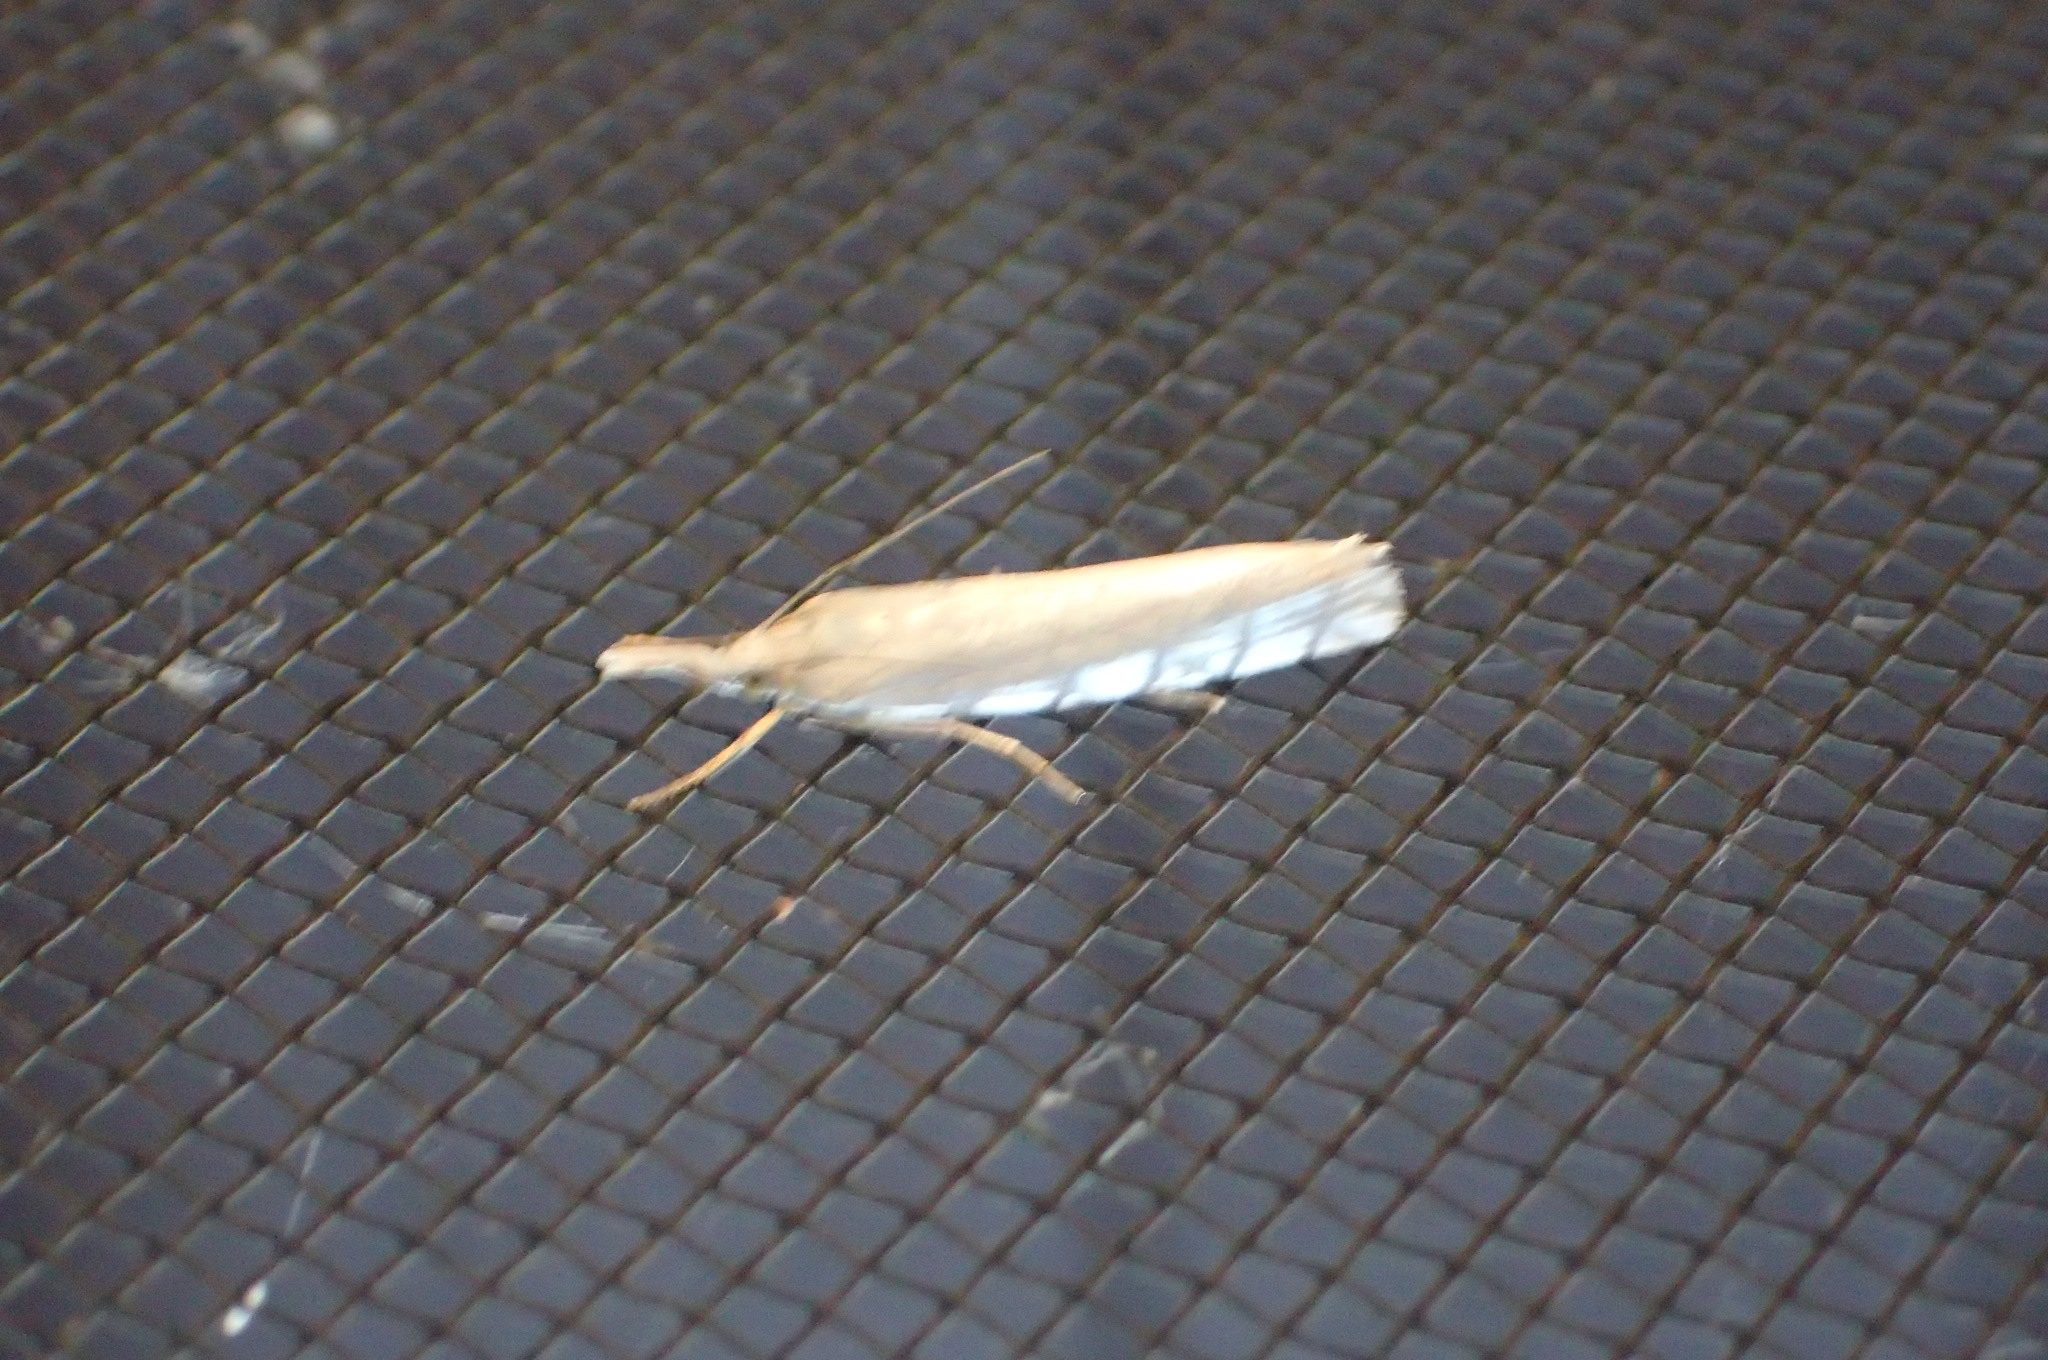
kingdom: Animalia
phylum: Arthropoda
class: Insecta
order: Lepidoptera
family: Crambidae
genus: Crambus
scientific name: Crambus perlellus
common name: Yellow satin veneer
